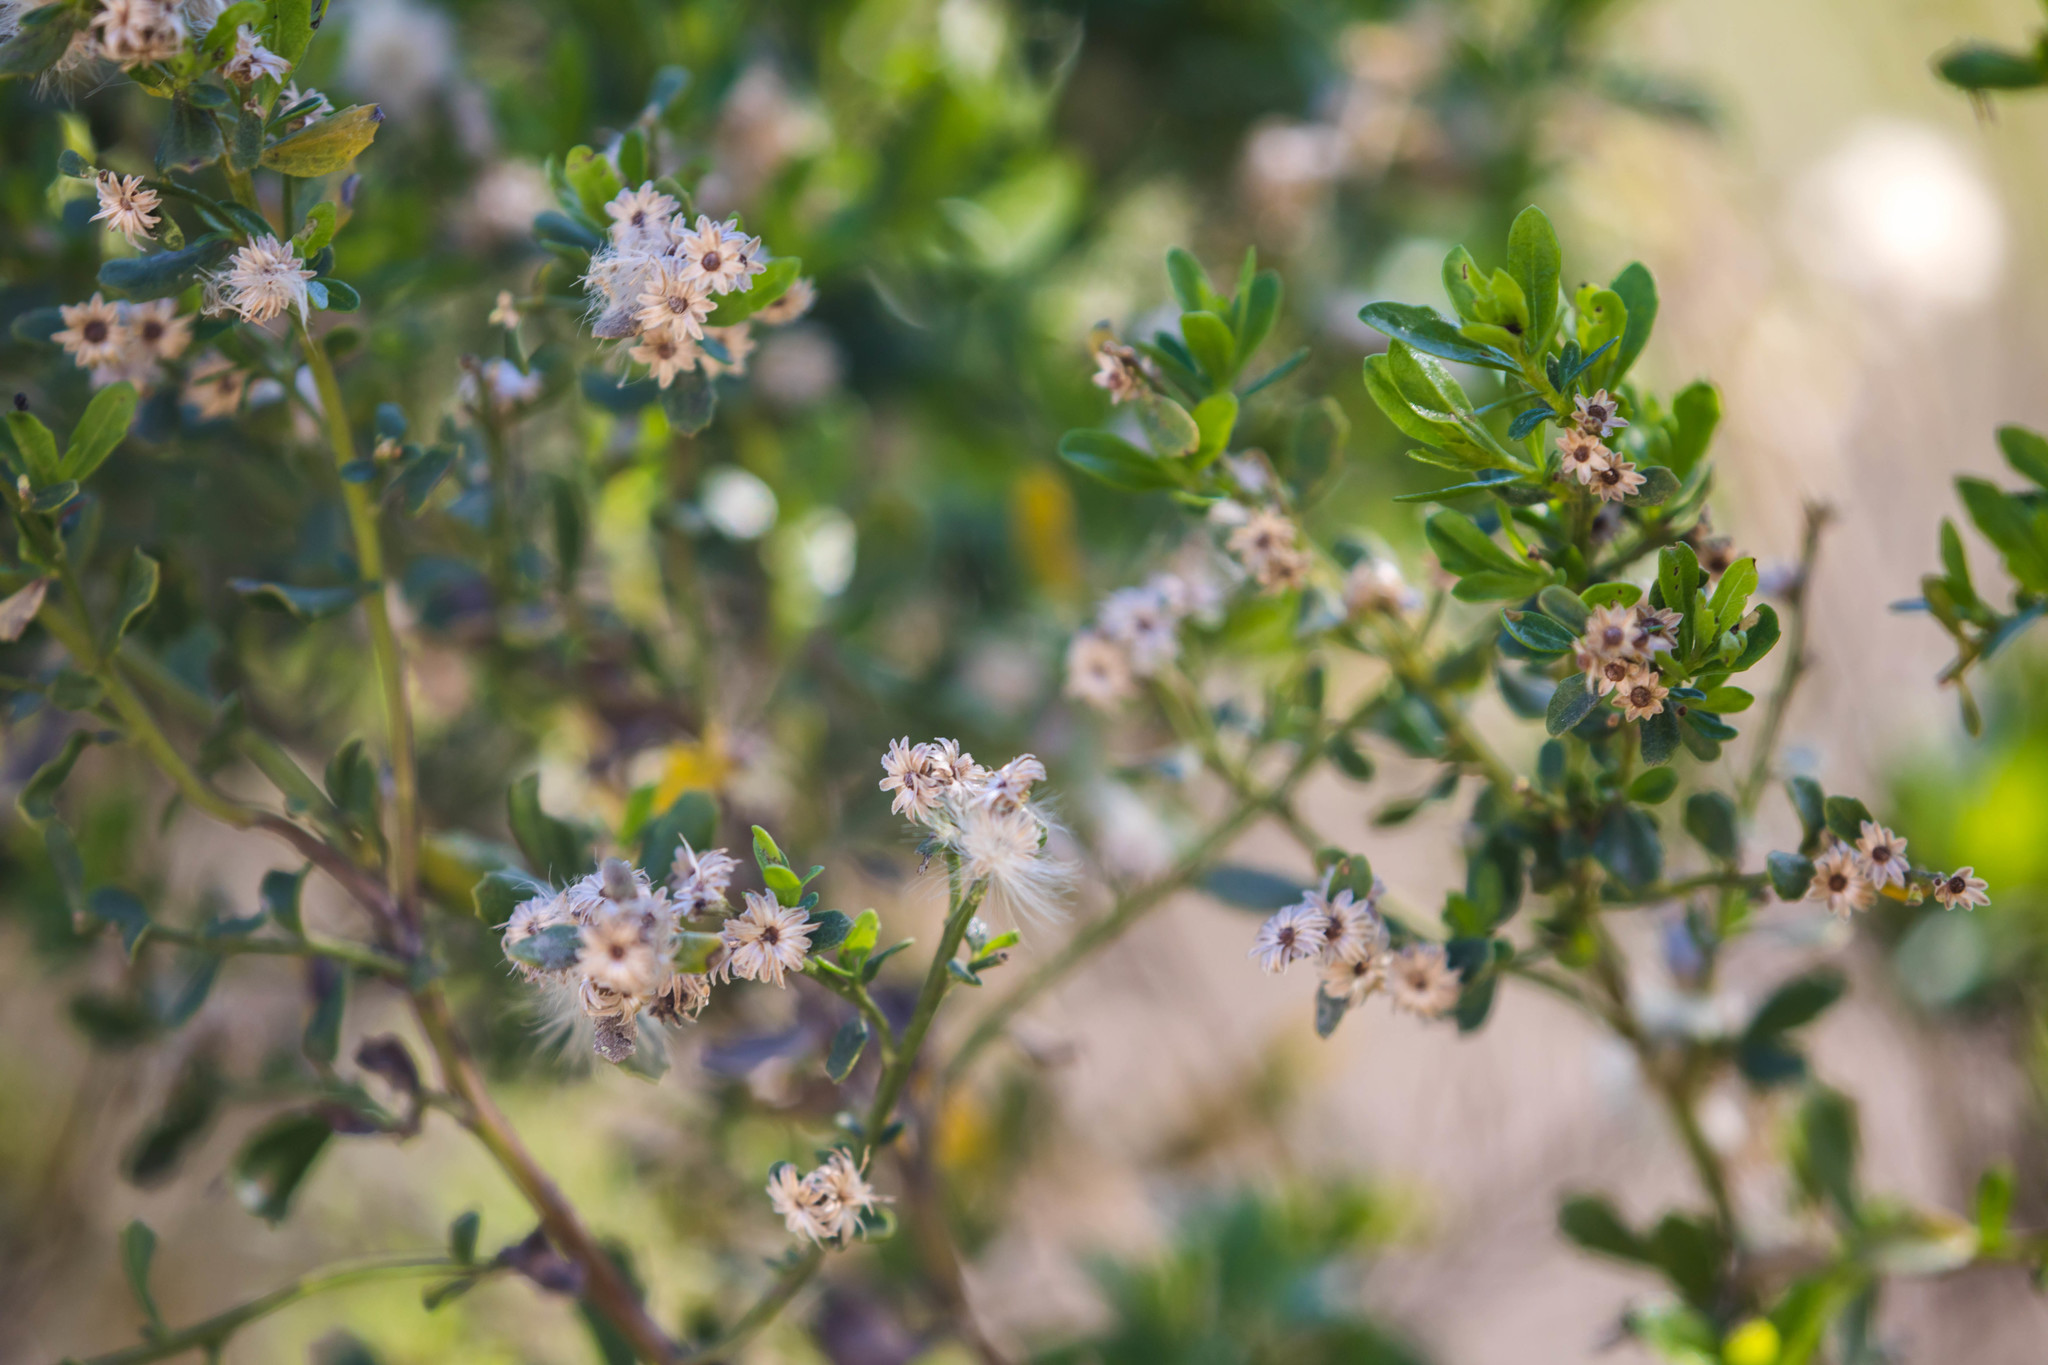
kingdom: Plantae
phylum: Tracheophyta
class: Magnoliopsida
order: Asterales
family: Asteraceae
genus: Baccharis
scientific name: Baccharis pilularis
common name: Coyotebrush
